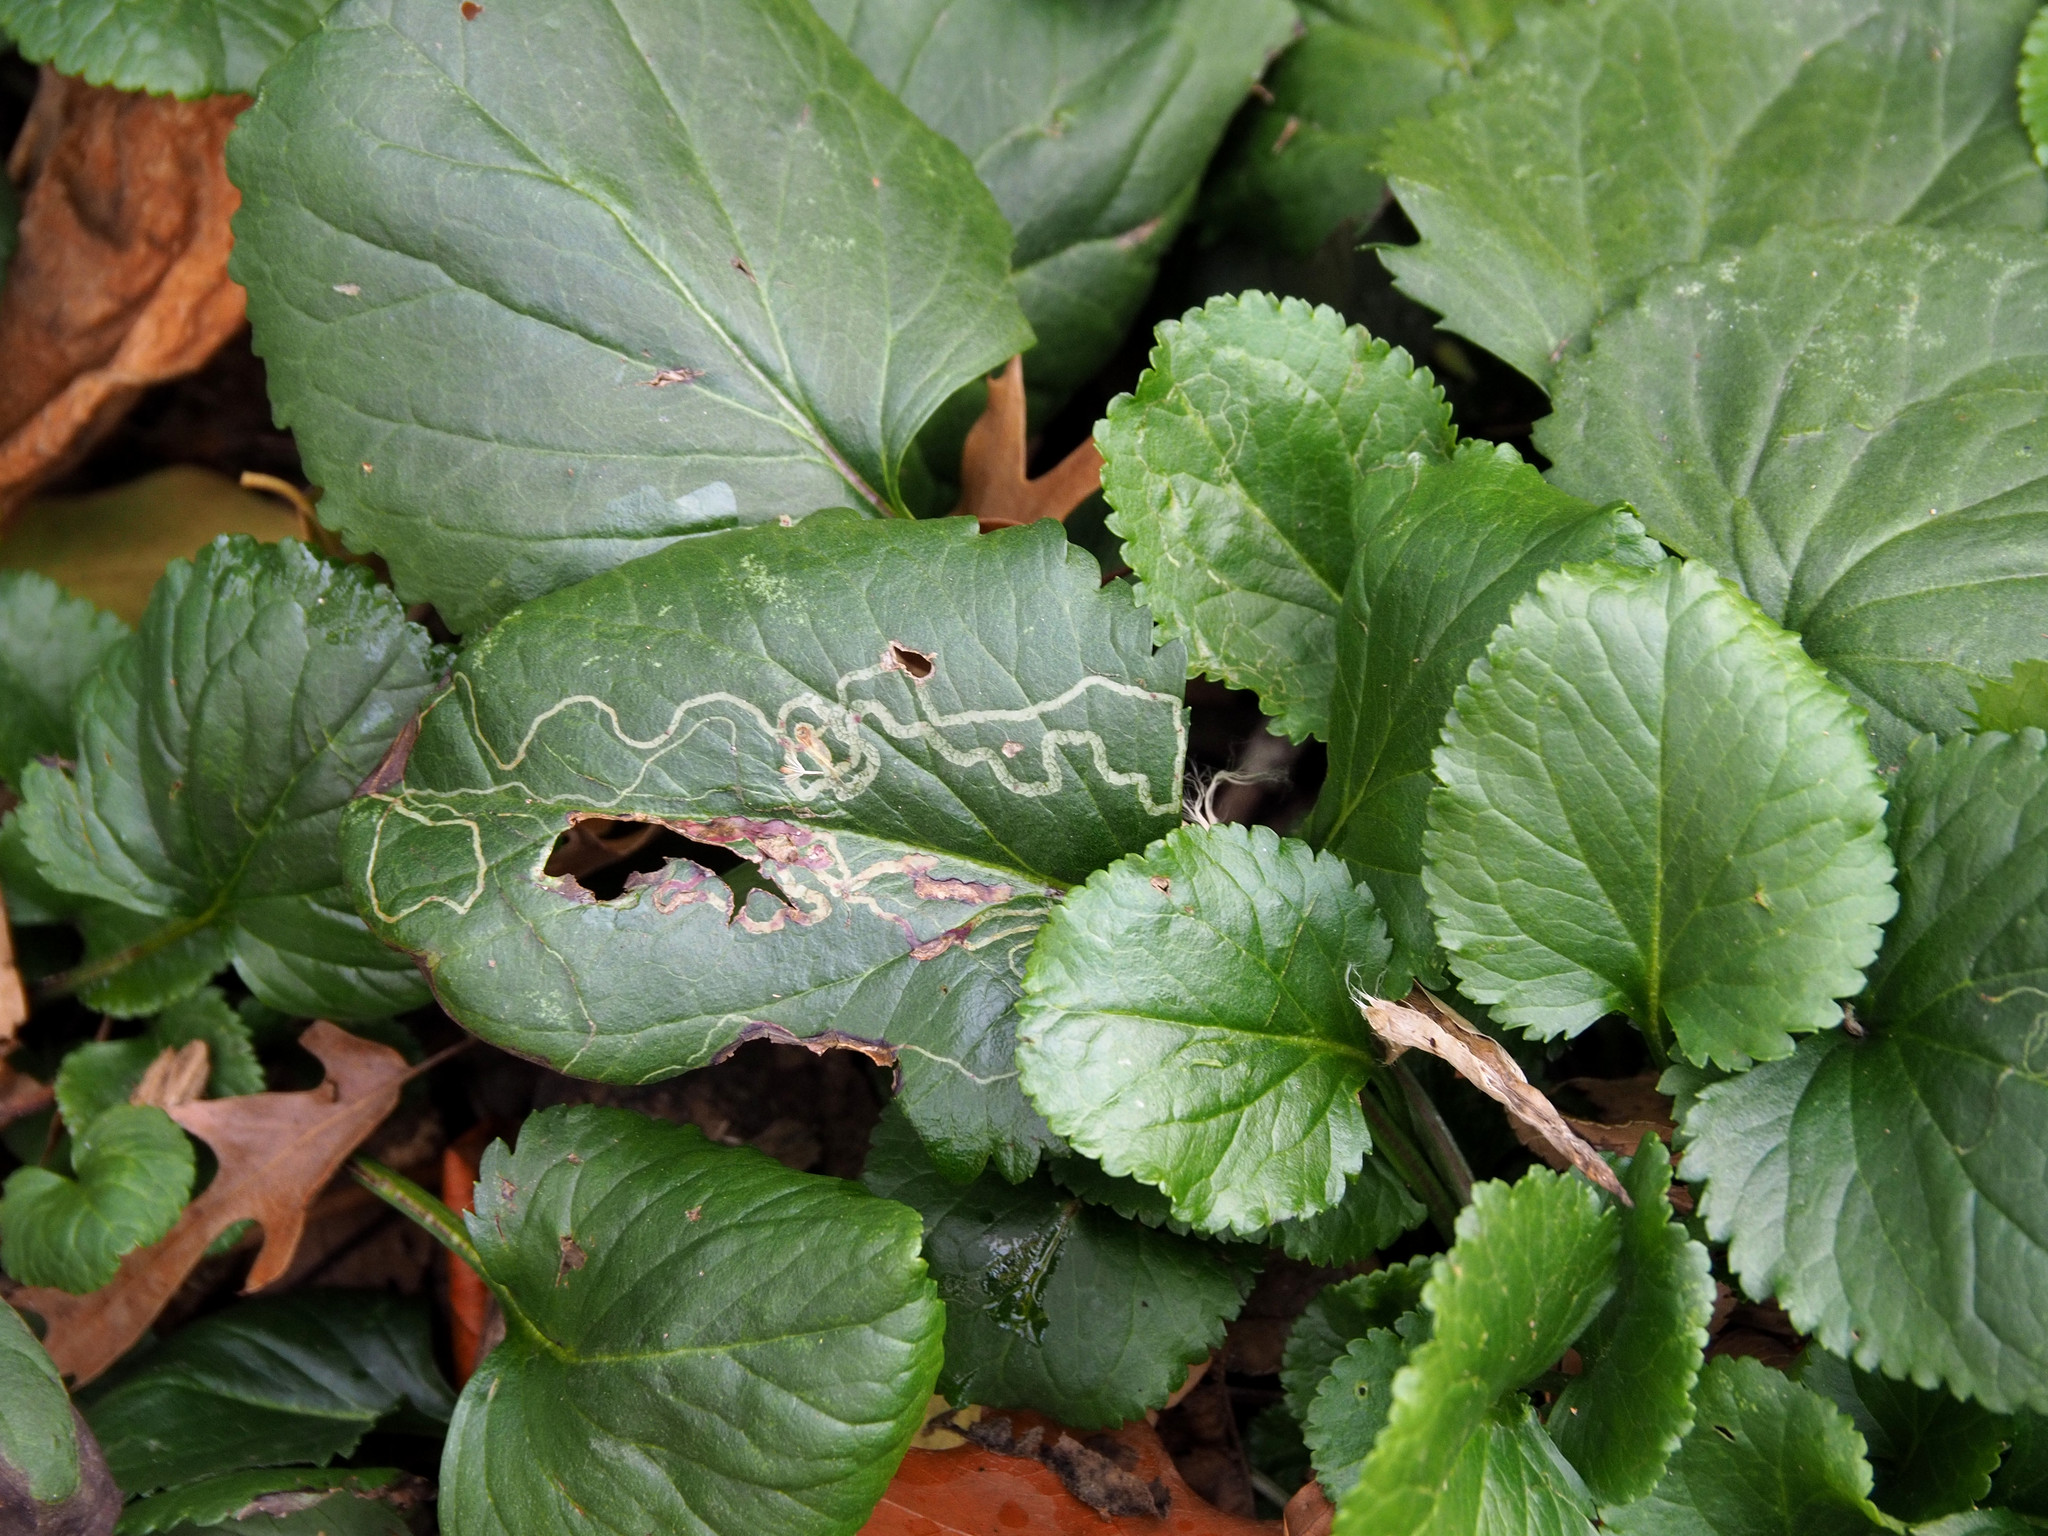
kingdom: Animalia
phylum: Arthropoda
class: Insecta
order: Lepidoptera
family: Gracillariidae
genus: Phyllocnistis
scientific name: Phyllocnistis insignis
